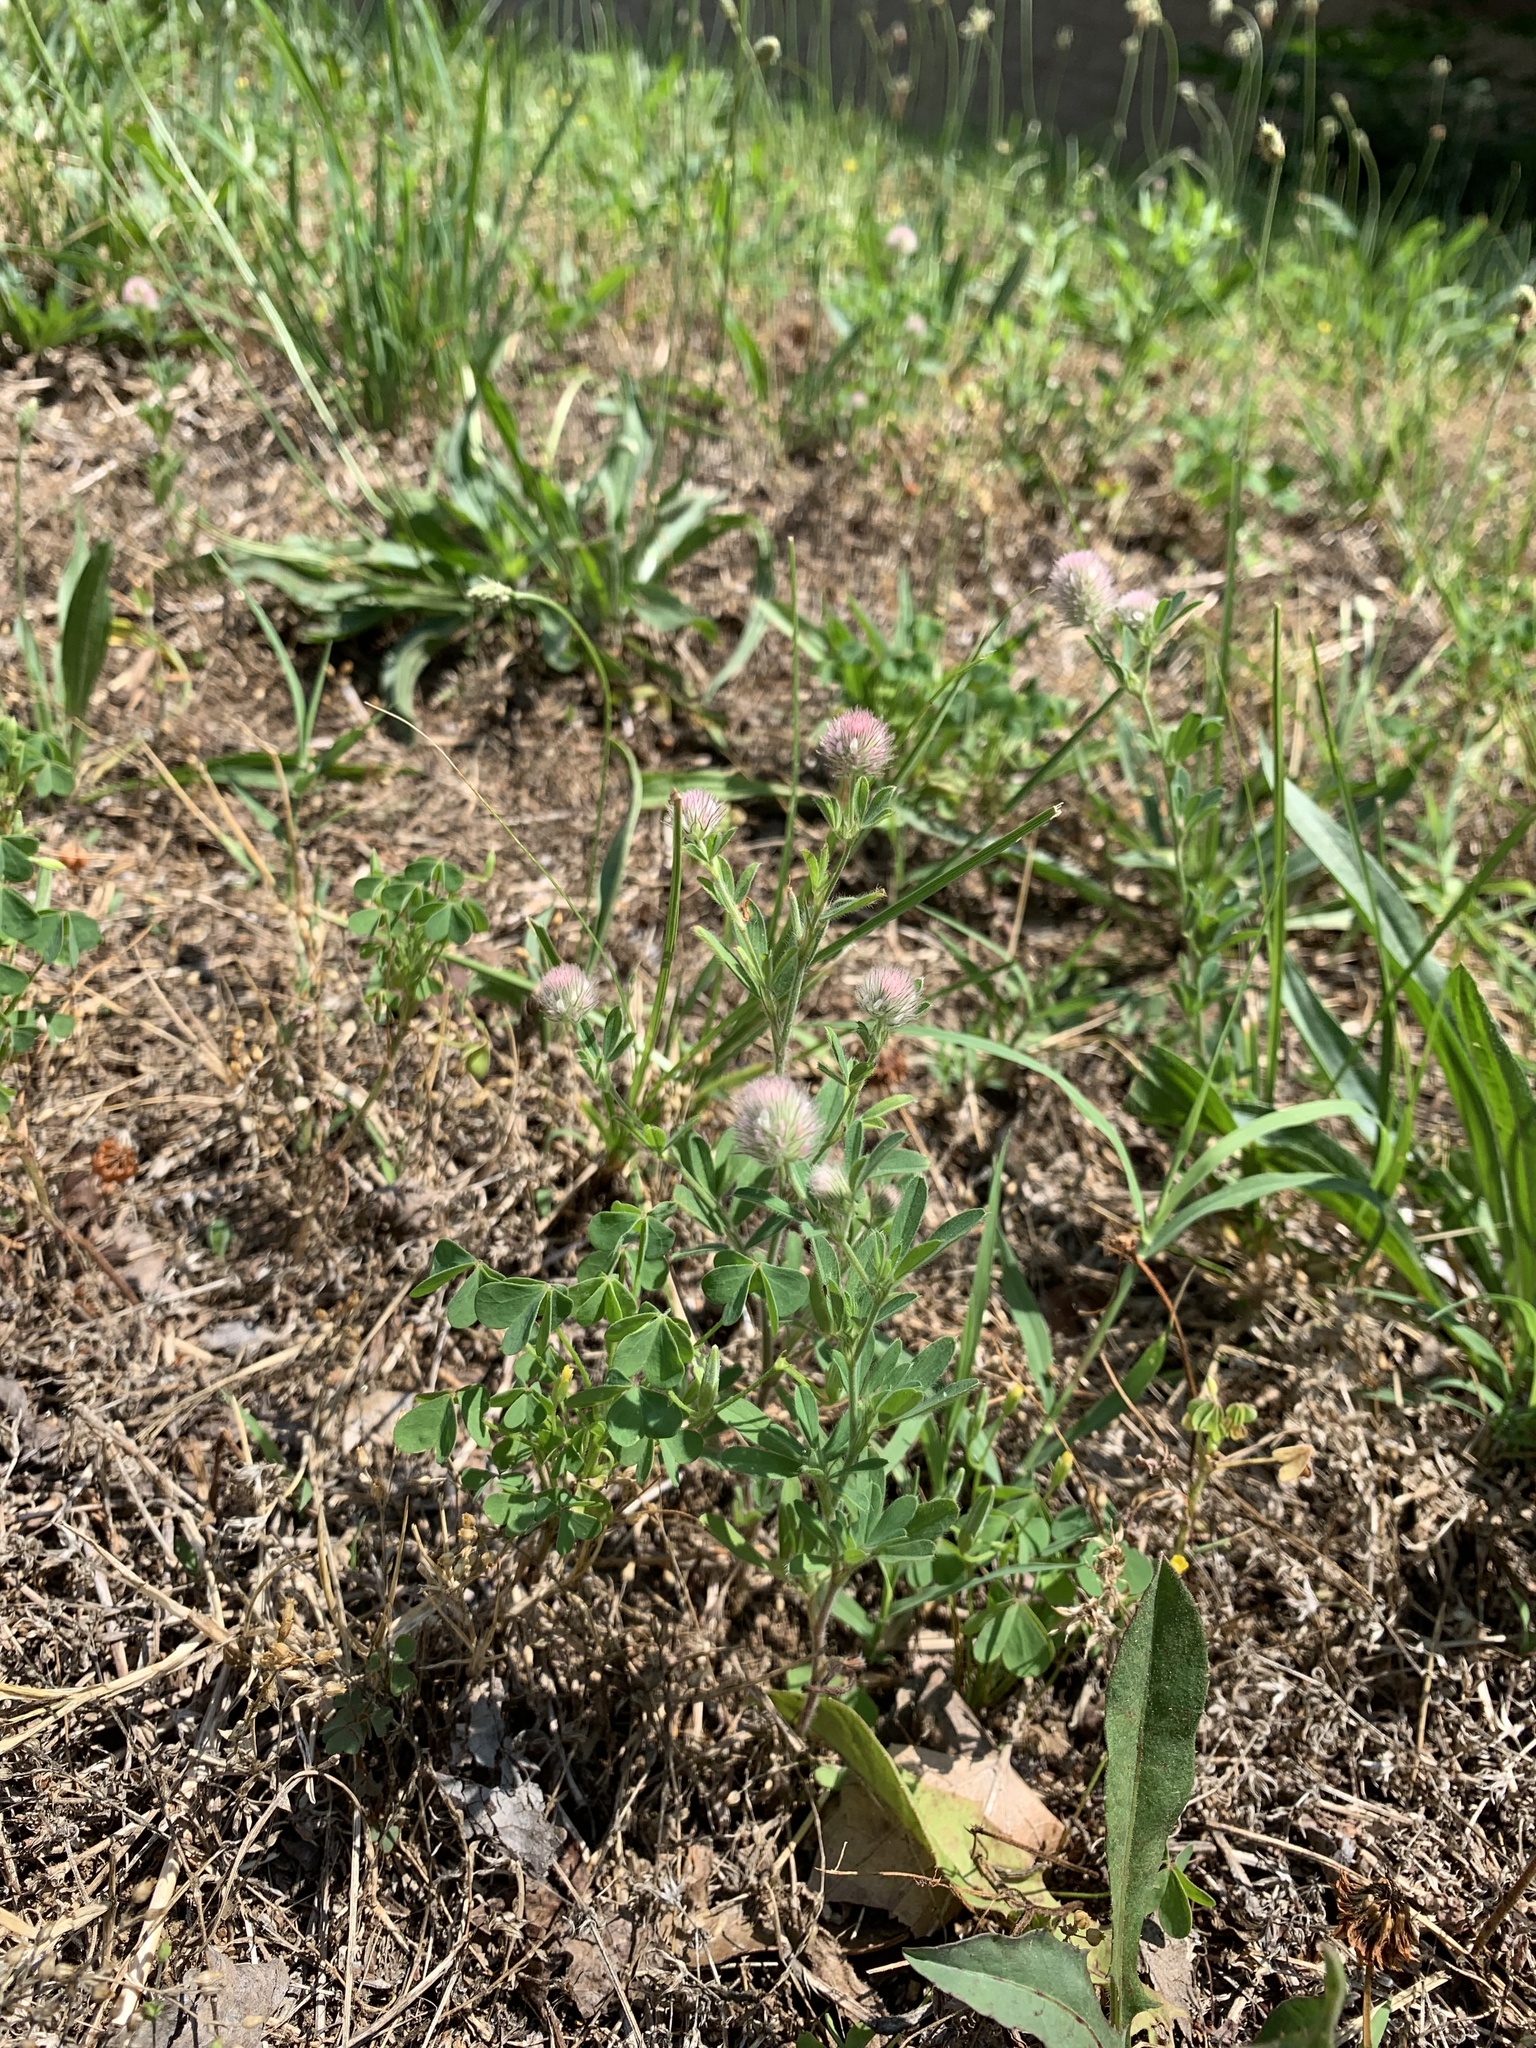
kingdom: Plantae
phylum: Tracheophyta
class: Magnoliopsida
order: Fabales
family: Fabaceae
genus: Trifolium
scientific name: Trifolium arvense
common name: Hare's-foot clover
